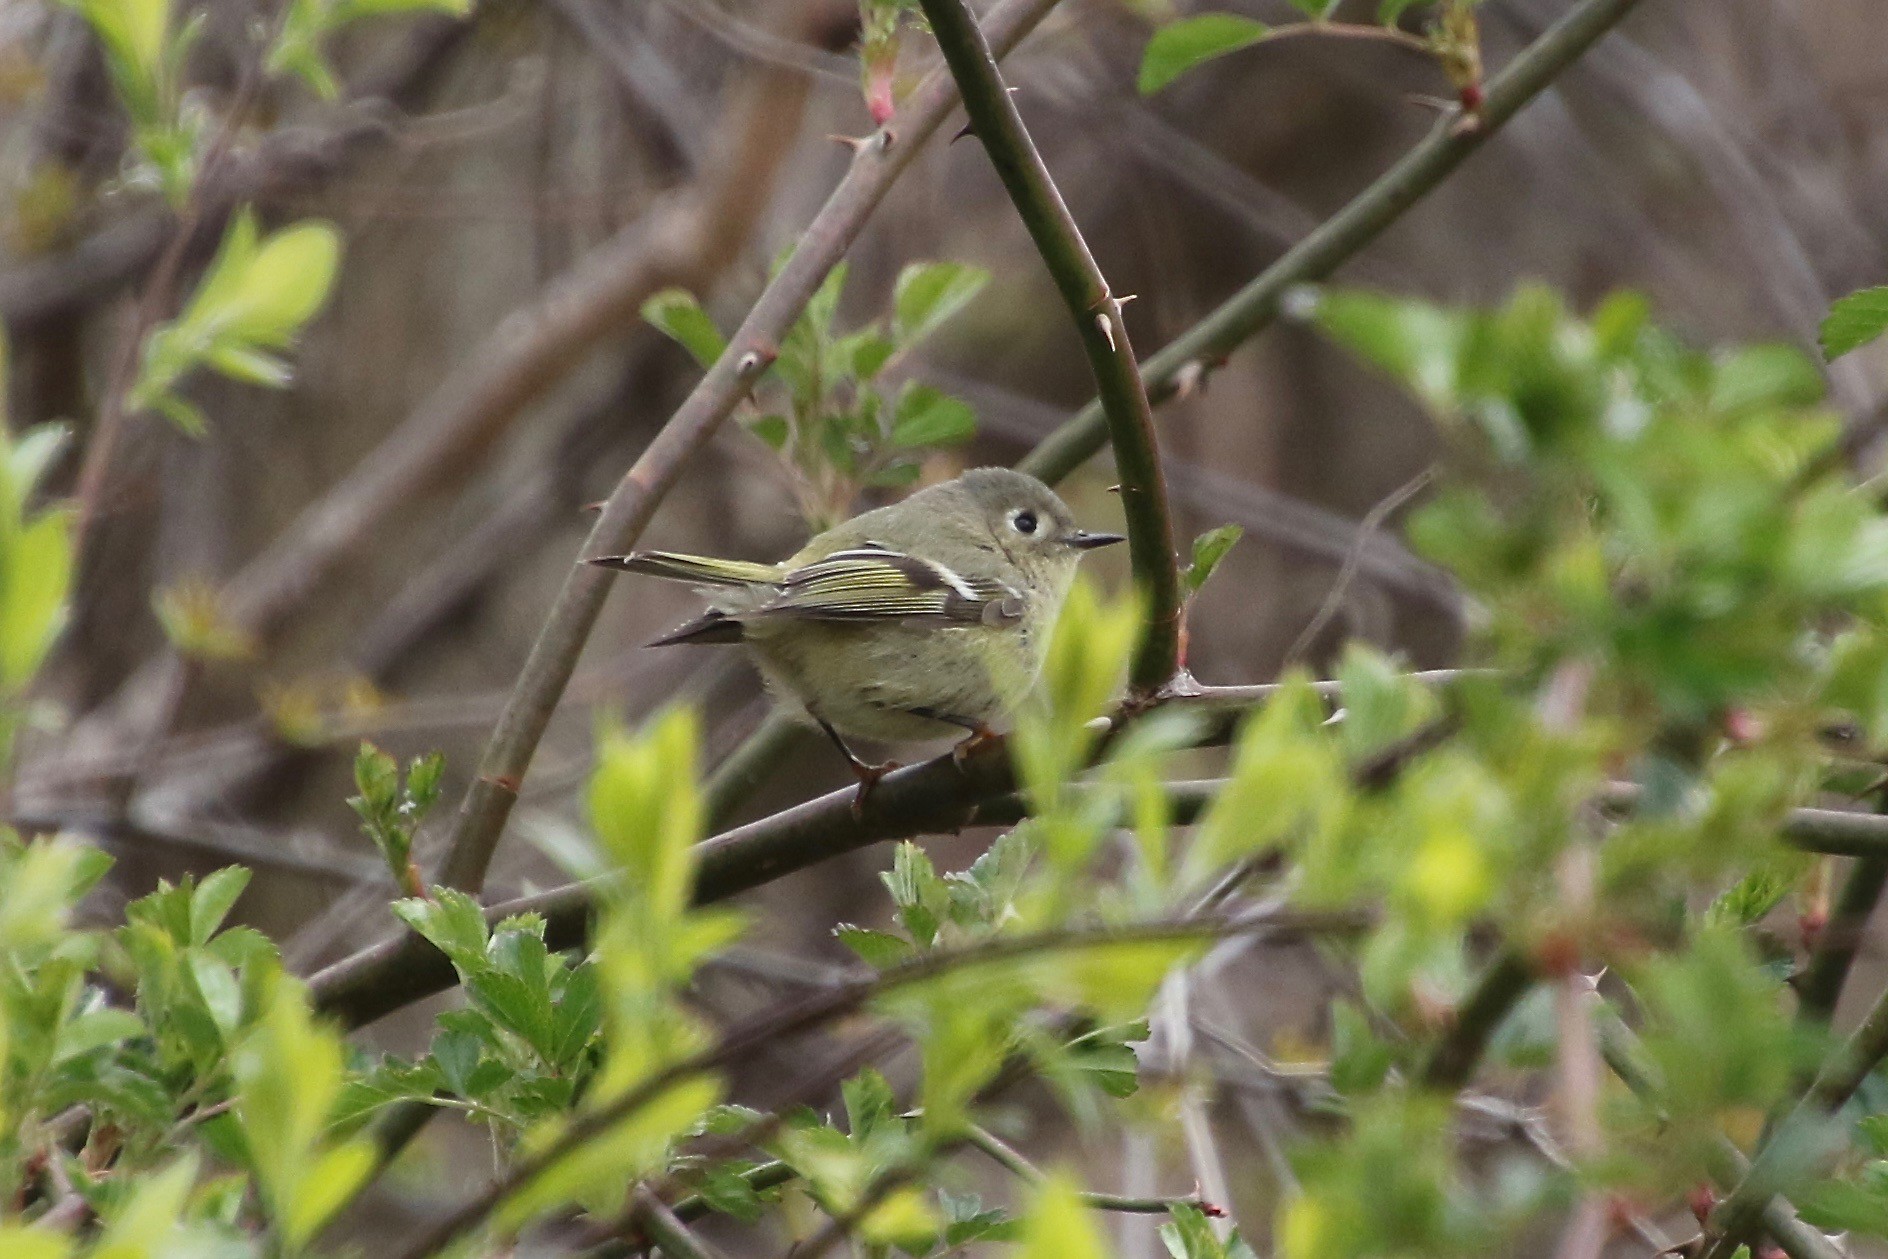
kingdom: Animalia
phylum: Chordata
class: Aves
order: Passeriformes
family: Regulidae
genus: Regulus
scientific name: Regulus calendula
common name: Ruby-crowned kinglet
